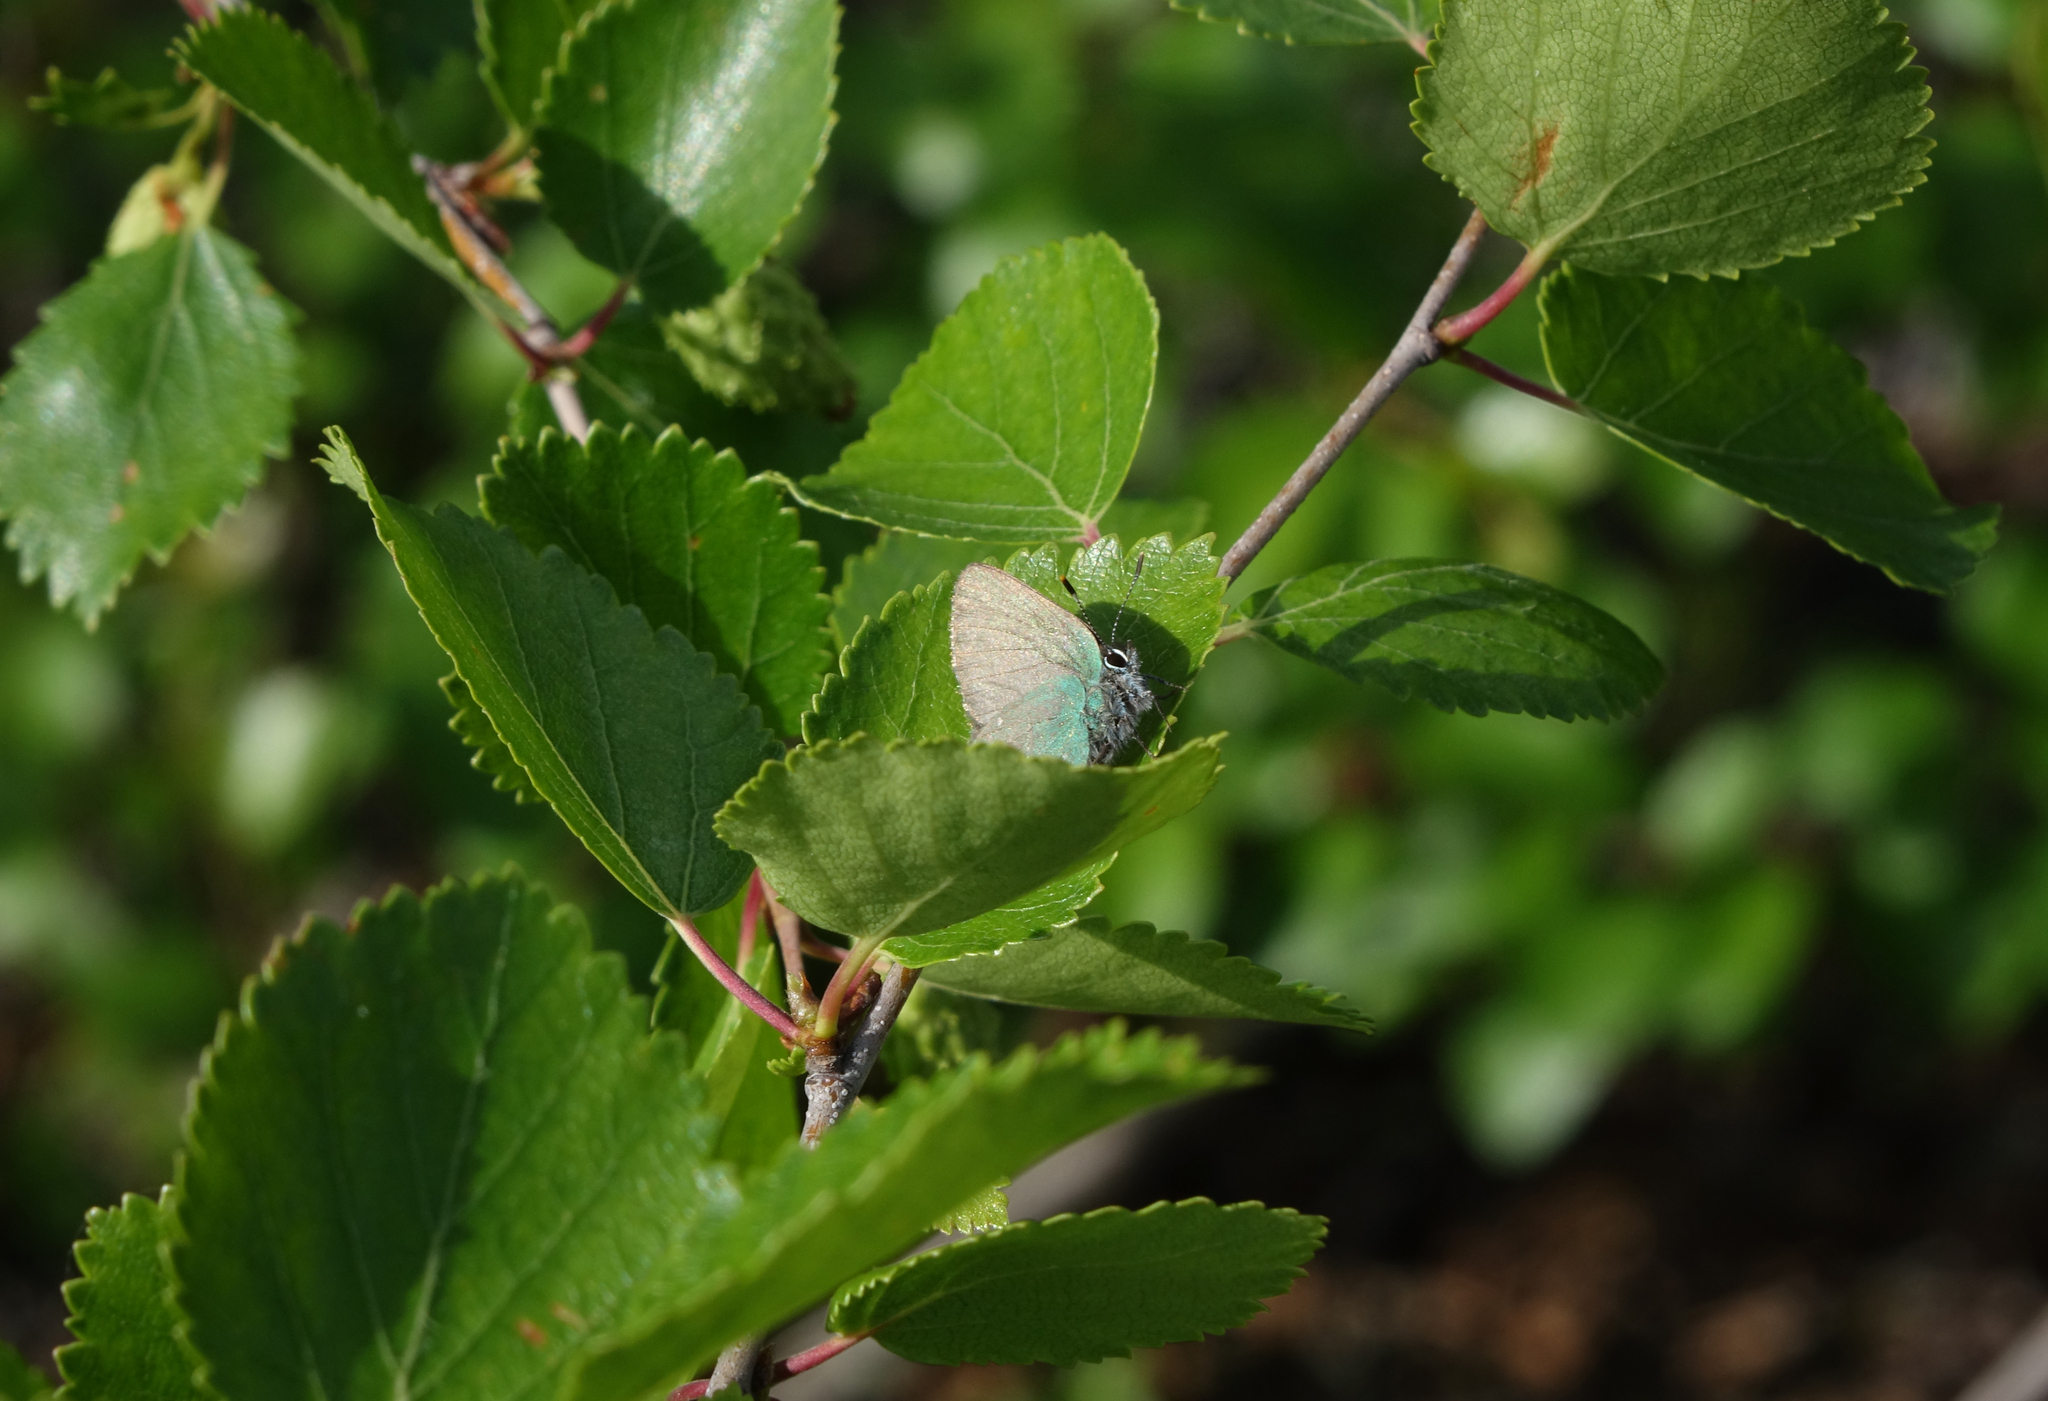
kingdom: Plantae
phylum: Tracheophyta
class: Magnoliopsida
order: Fagales
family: Betulaceae
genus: Betula
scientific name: Betula fruticosa
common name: Japanese bog birch
